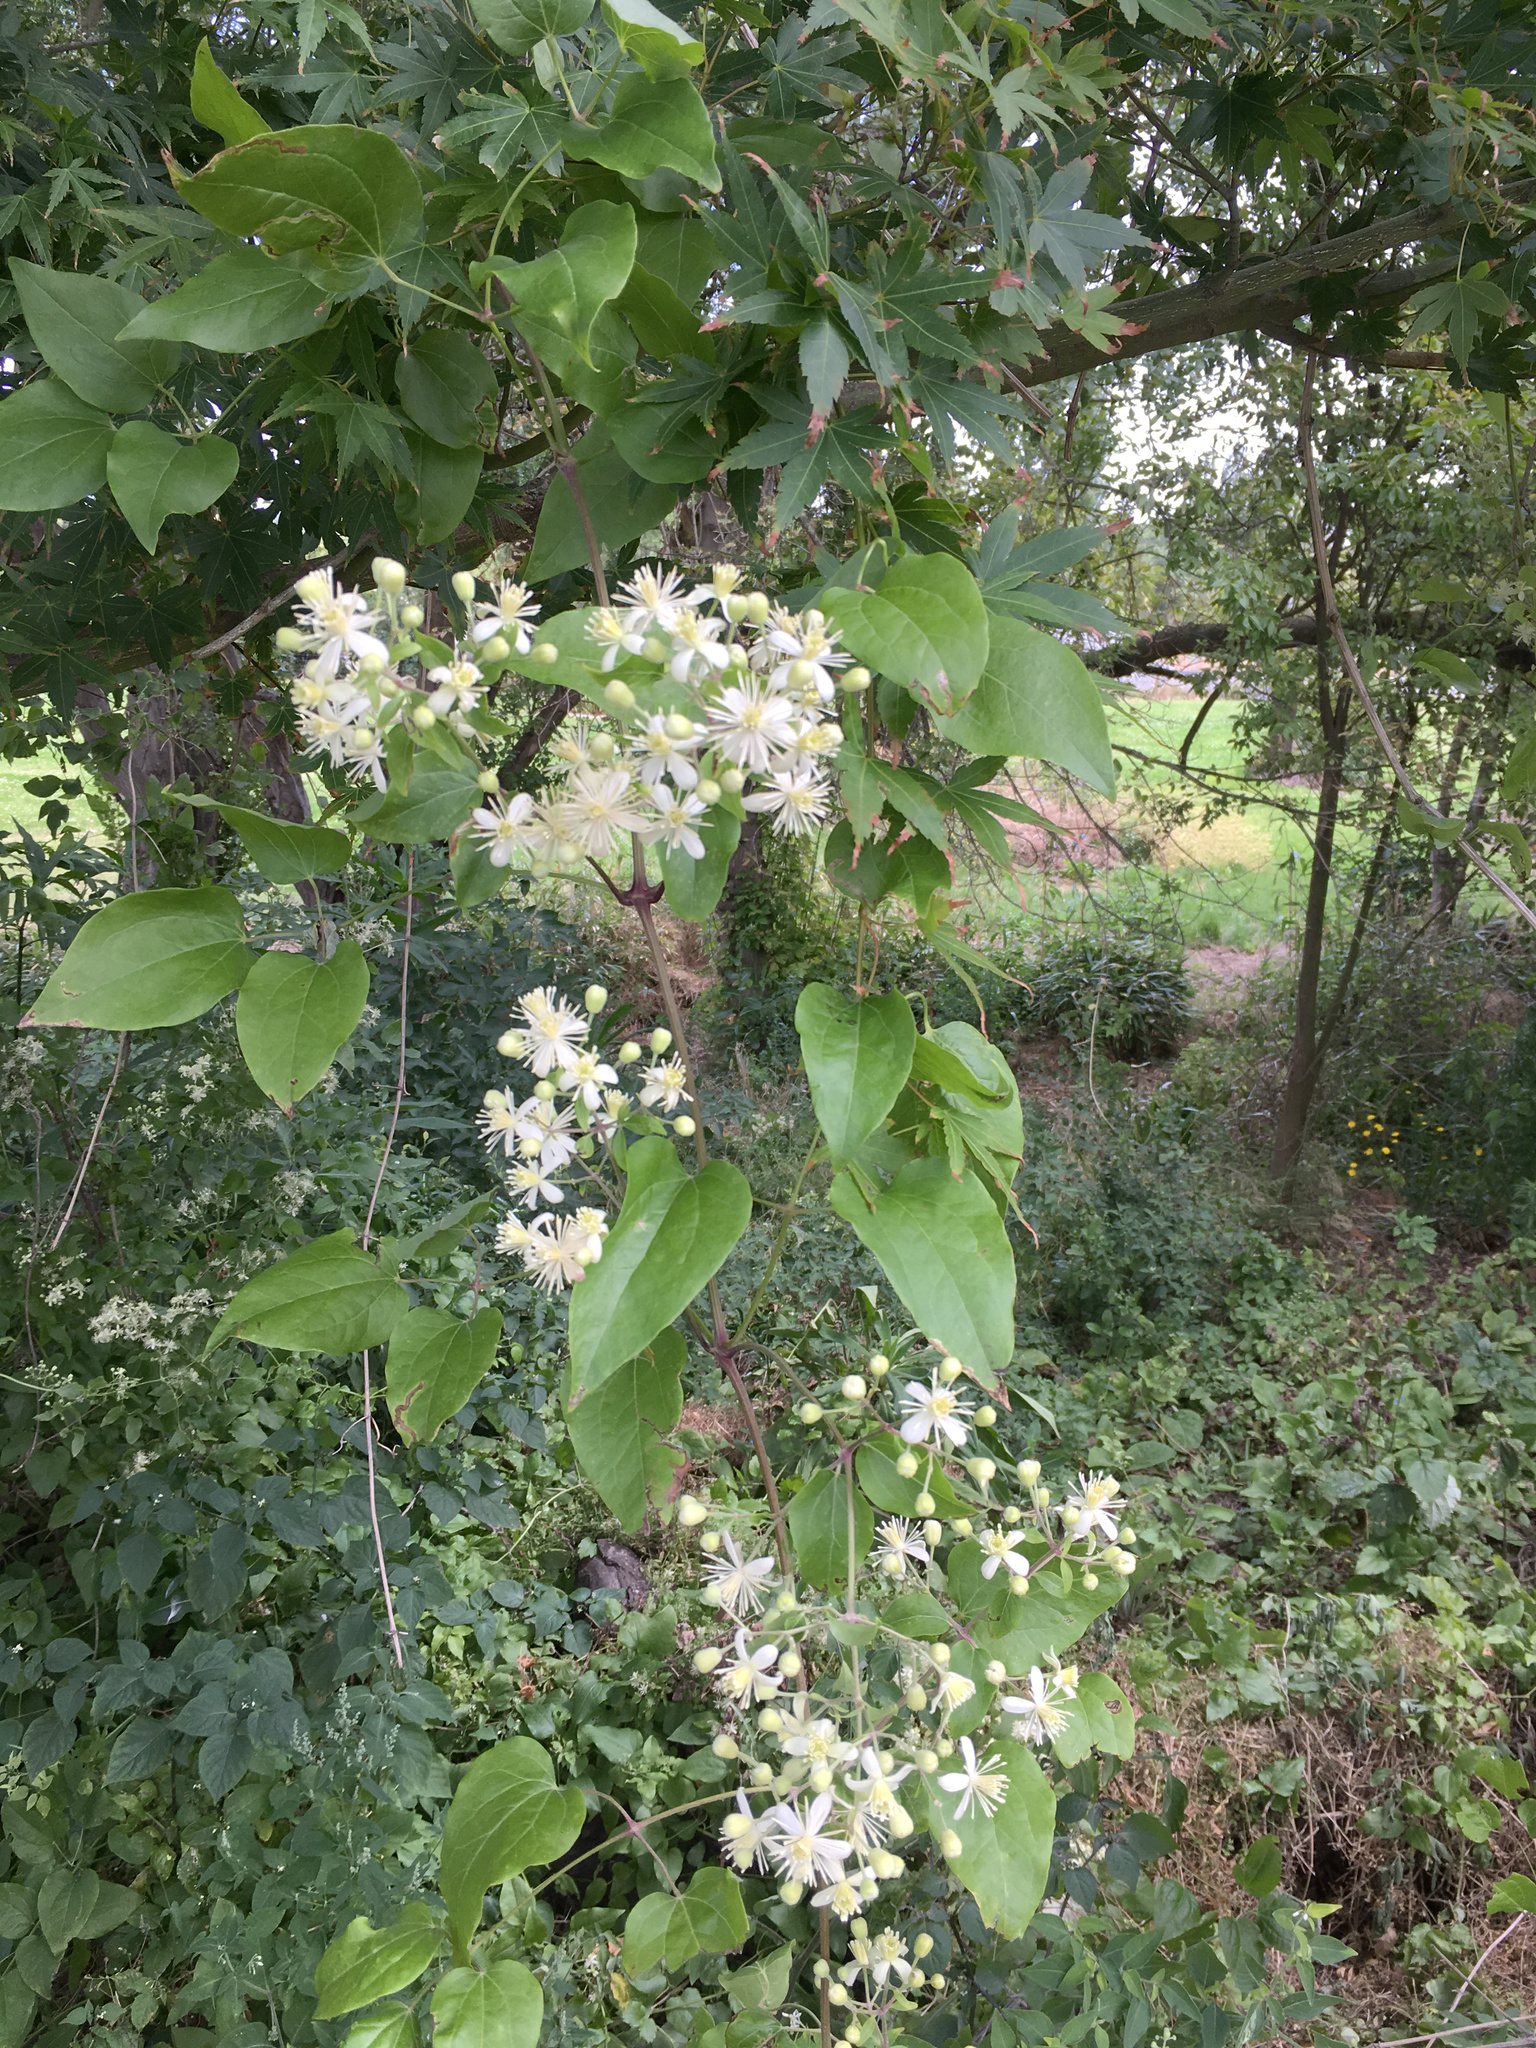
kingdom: Plantae
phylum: Tracheophyta
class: Magnoliopsida
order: Ranunculales
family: Ranunculaceae
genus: Clematis
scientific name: Clematis vitalba
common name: Evergreen clematis
